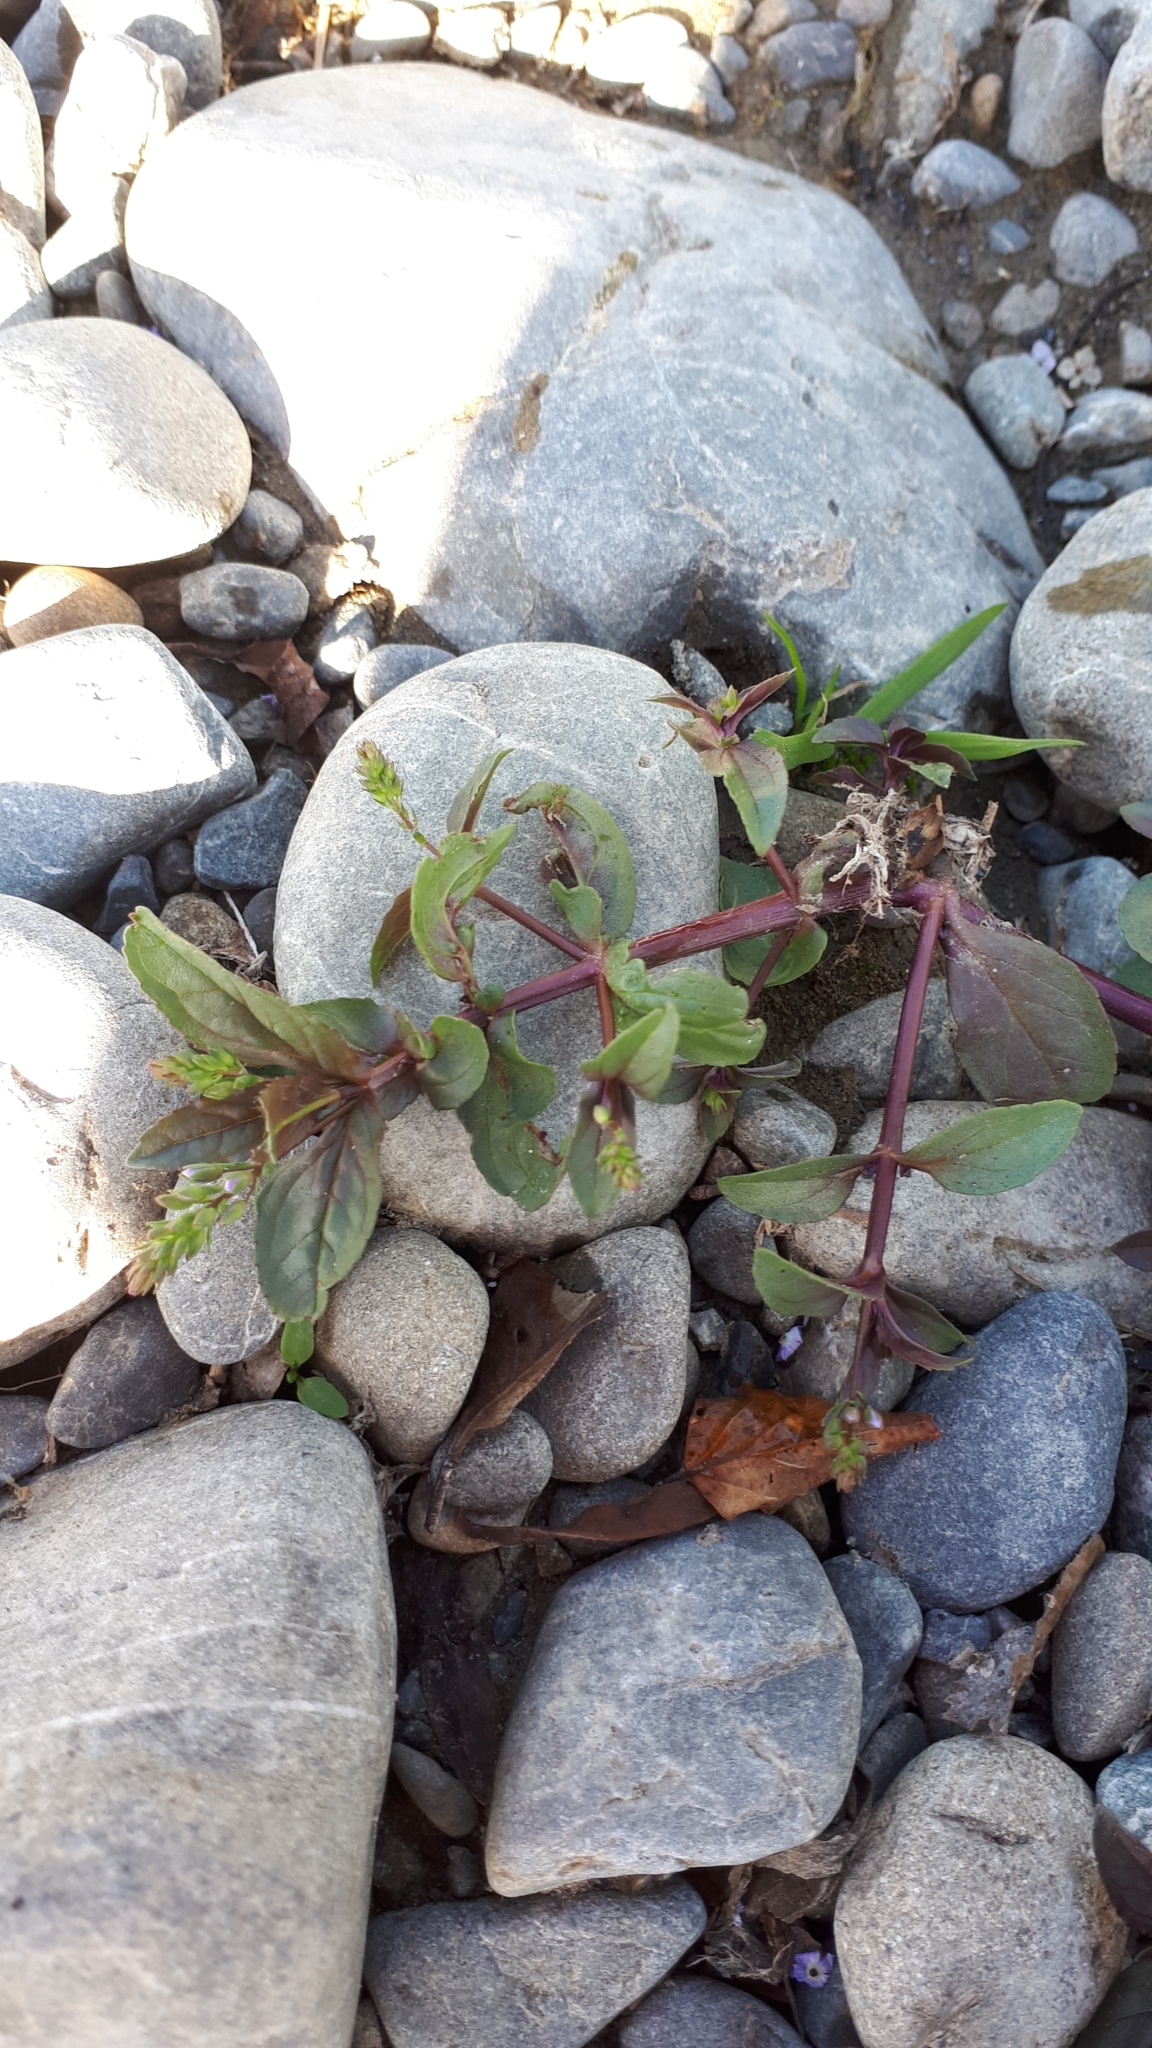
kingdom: Plantae
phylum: Tracheophyta
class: Magnoliopsida
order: Lamiales
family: Plantaginaceae
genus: Veronica
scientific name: Veronica anagallis-aquatica
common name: Water speedwell
